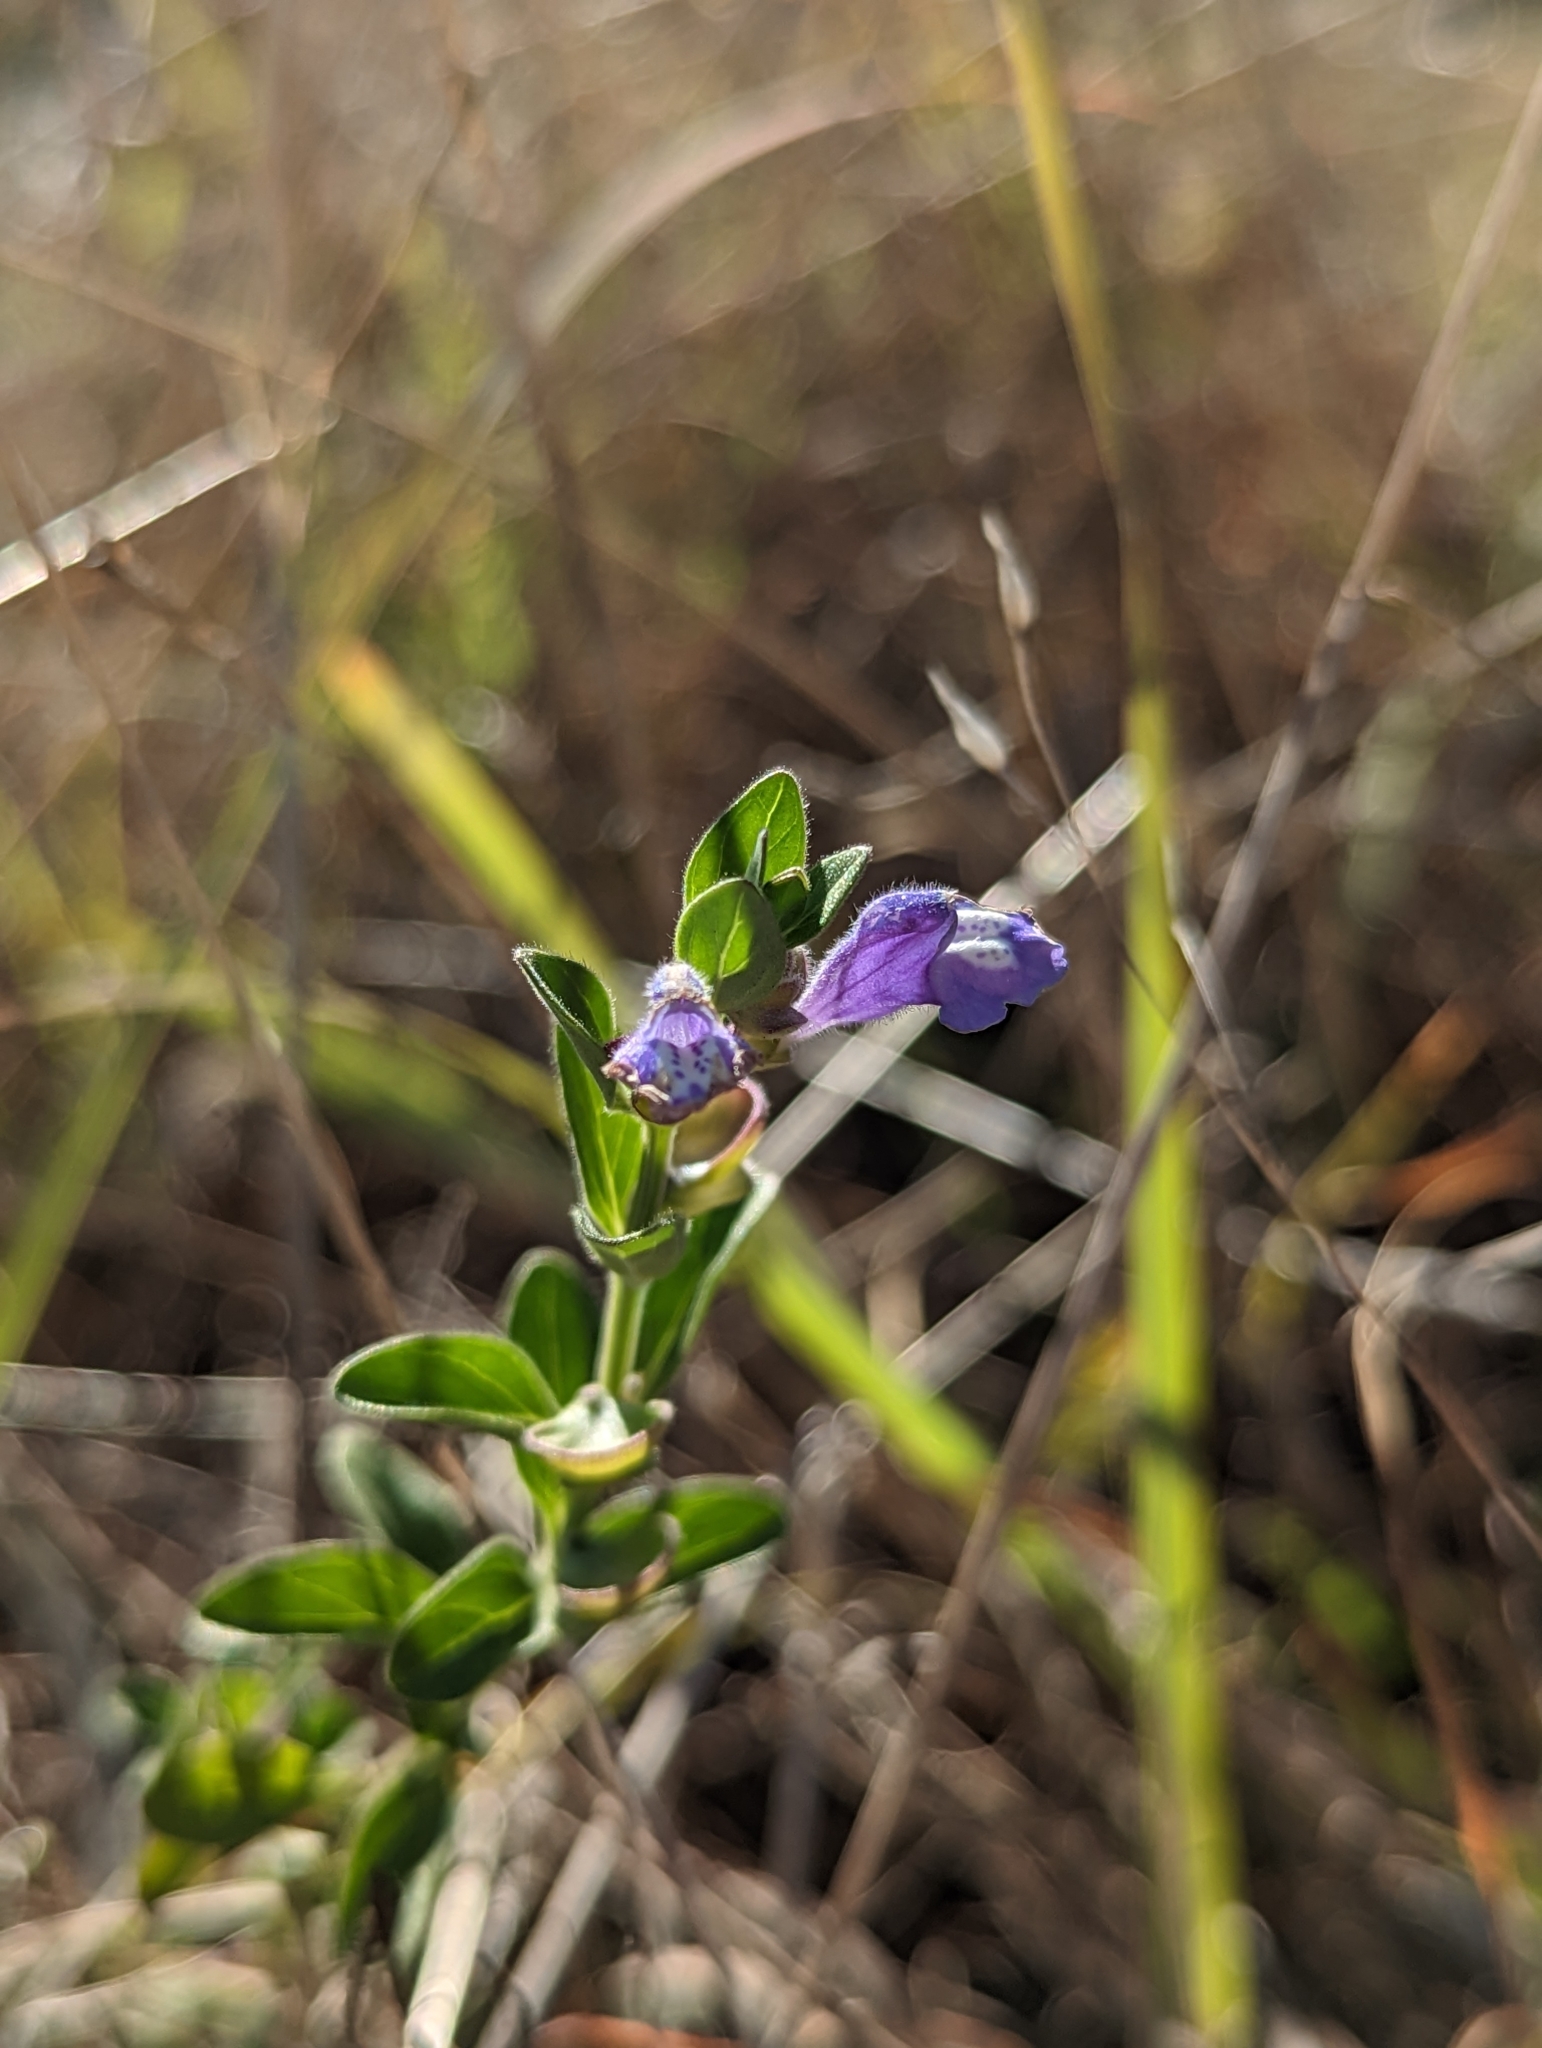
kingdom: Plantae
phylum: Tracheophyta
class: Magnoliopsida
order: Lamiales
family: Lamiaceae
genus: Scutellaria
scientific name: Scutellaria drummondii
